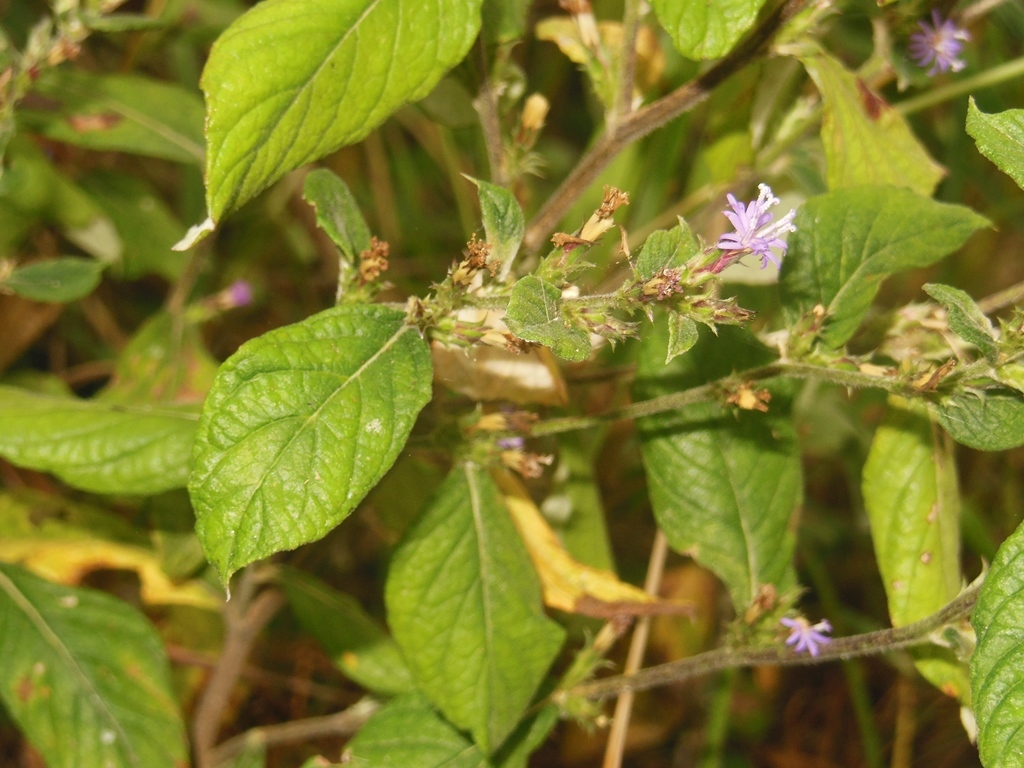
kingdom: Plantae
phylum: Tracheophyta
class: Magnoliopsida
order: Asterales
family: Asteraceae
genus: Stenocephalum
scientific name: Stenocephalum jucundum
